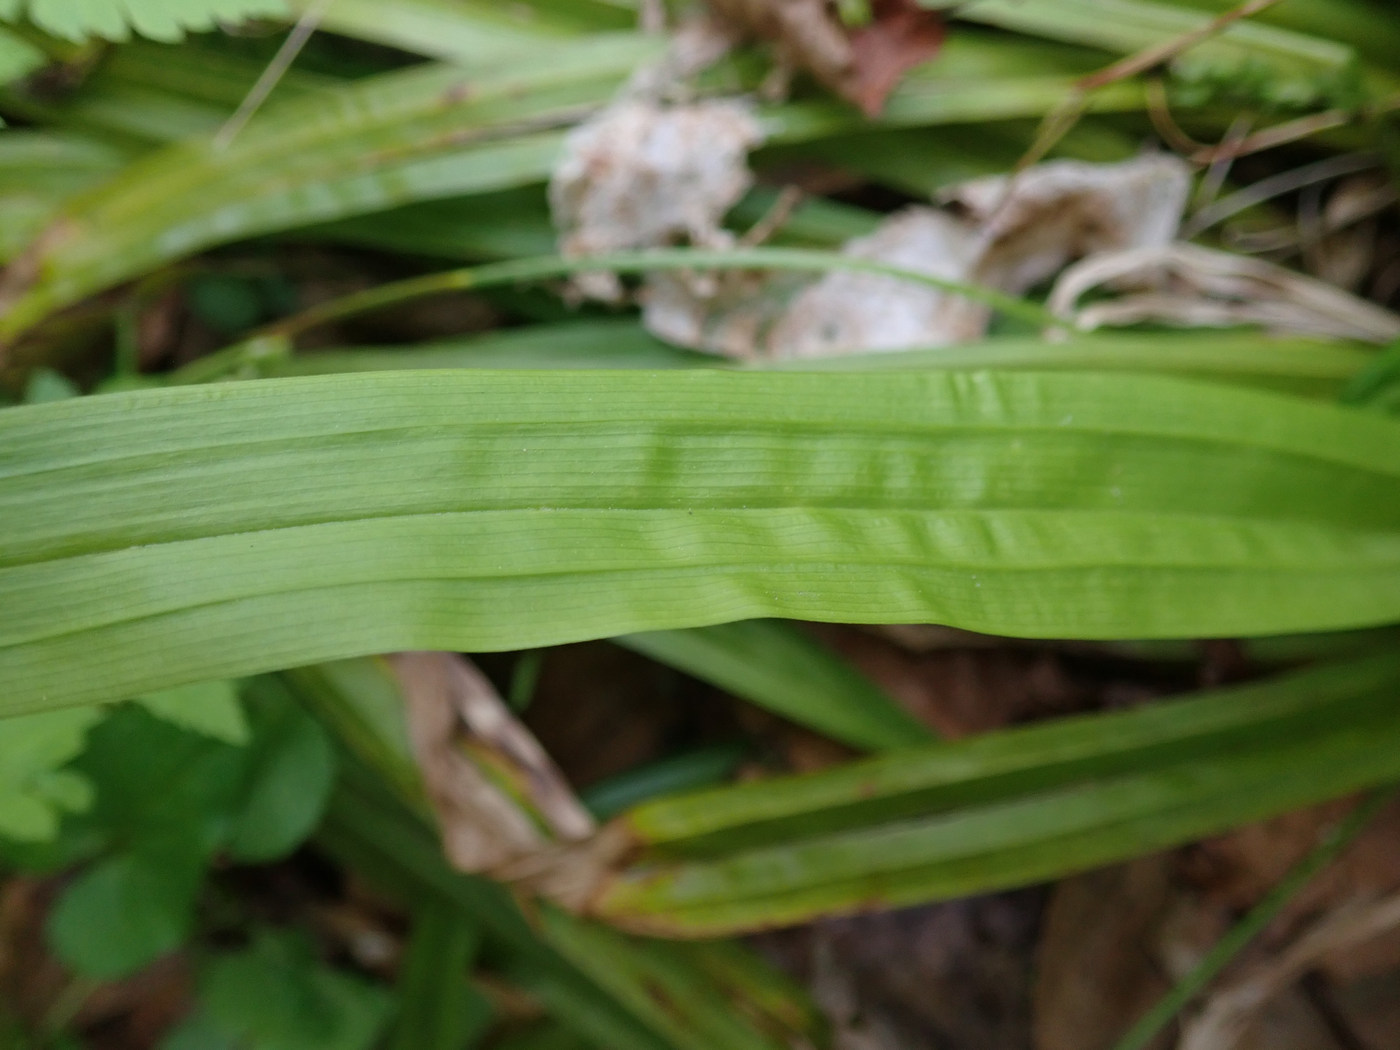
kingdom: Plantae
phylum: Tracheophyta
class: Liliopsida
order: Poales
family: Cyperaceae
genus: Carex
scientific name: Carex plantaginea
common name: Plantain-leaved sedge
